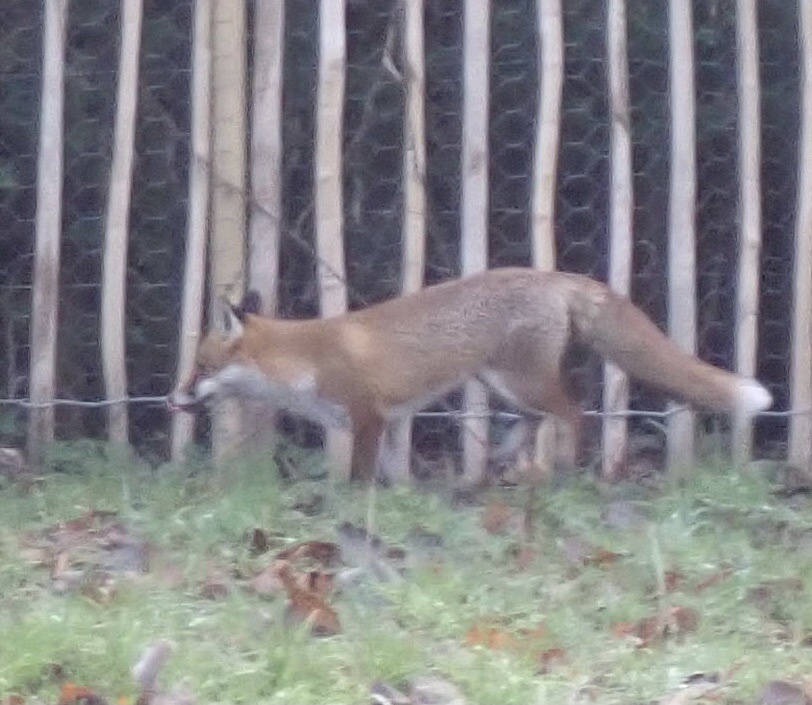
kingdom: Animalia
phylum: Chordata
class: Mammalia
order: Carnivora
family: Canidae
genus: Vulpes
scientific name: Vulpes vulpes
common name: Red fox
